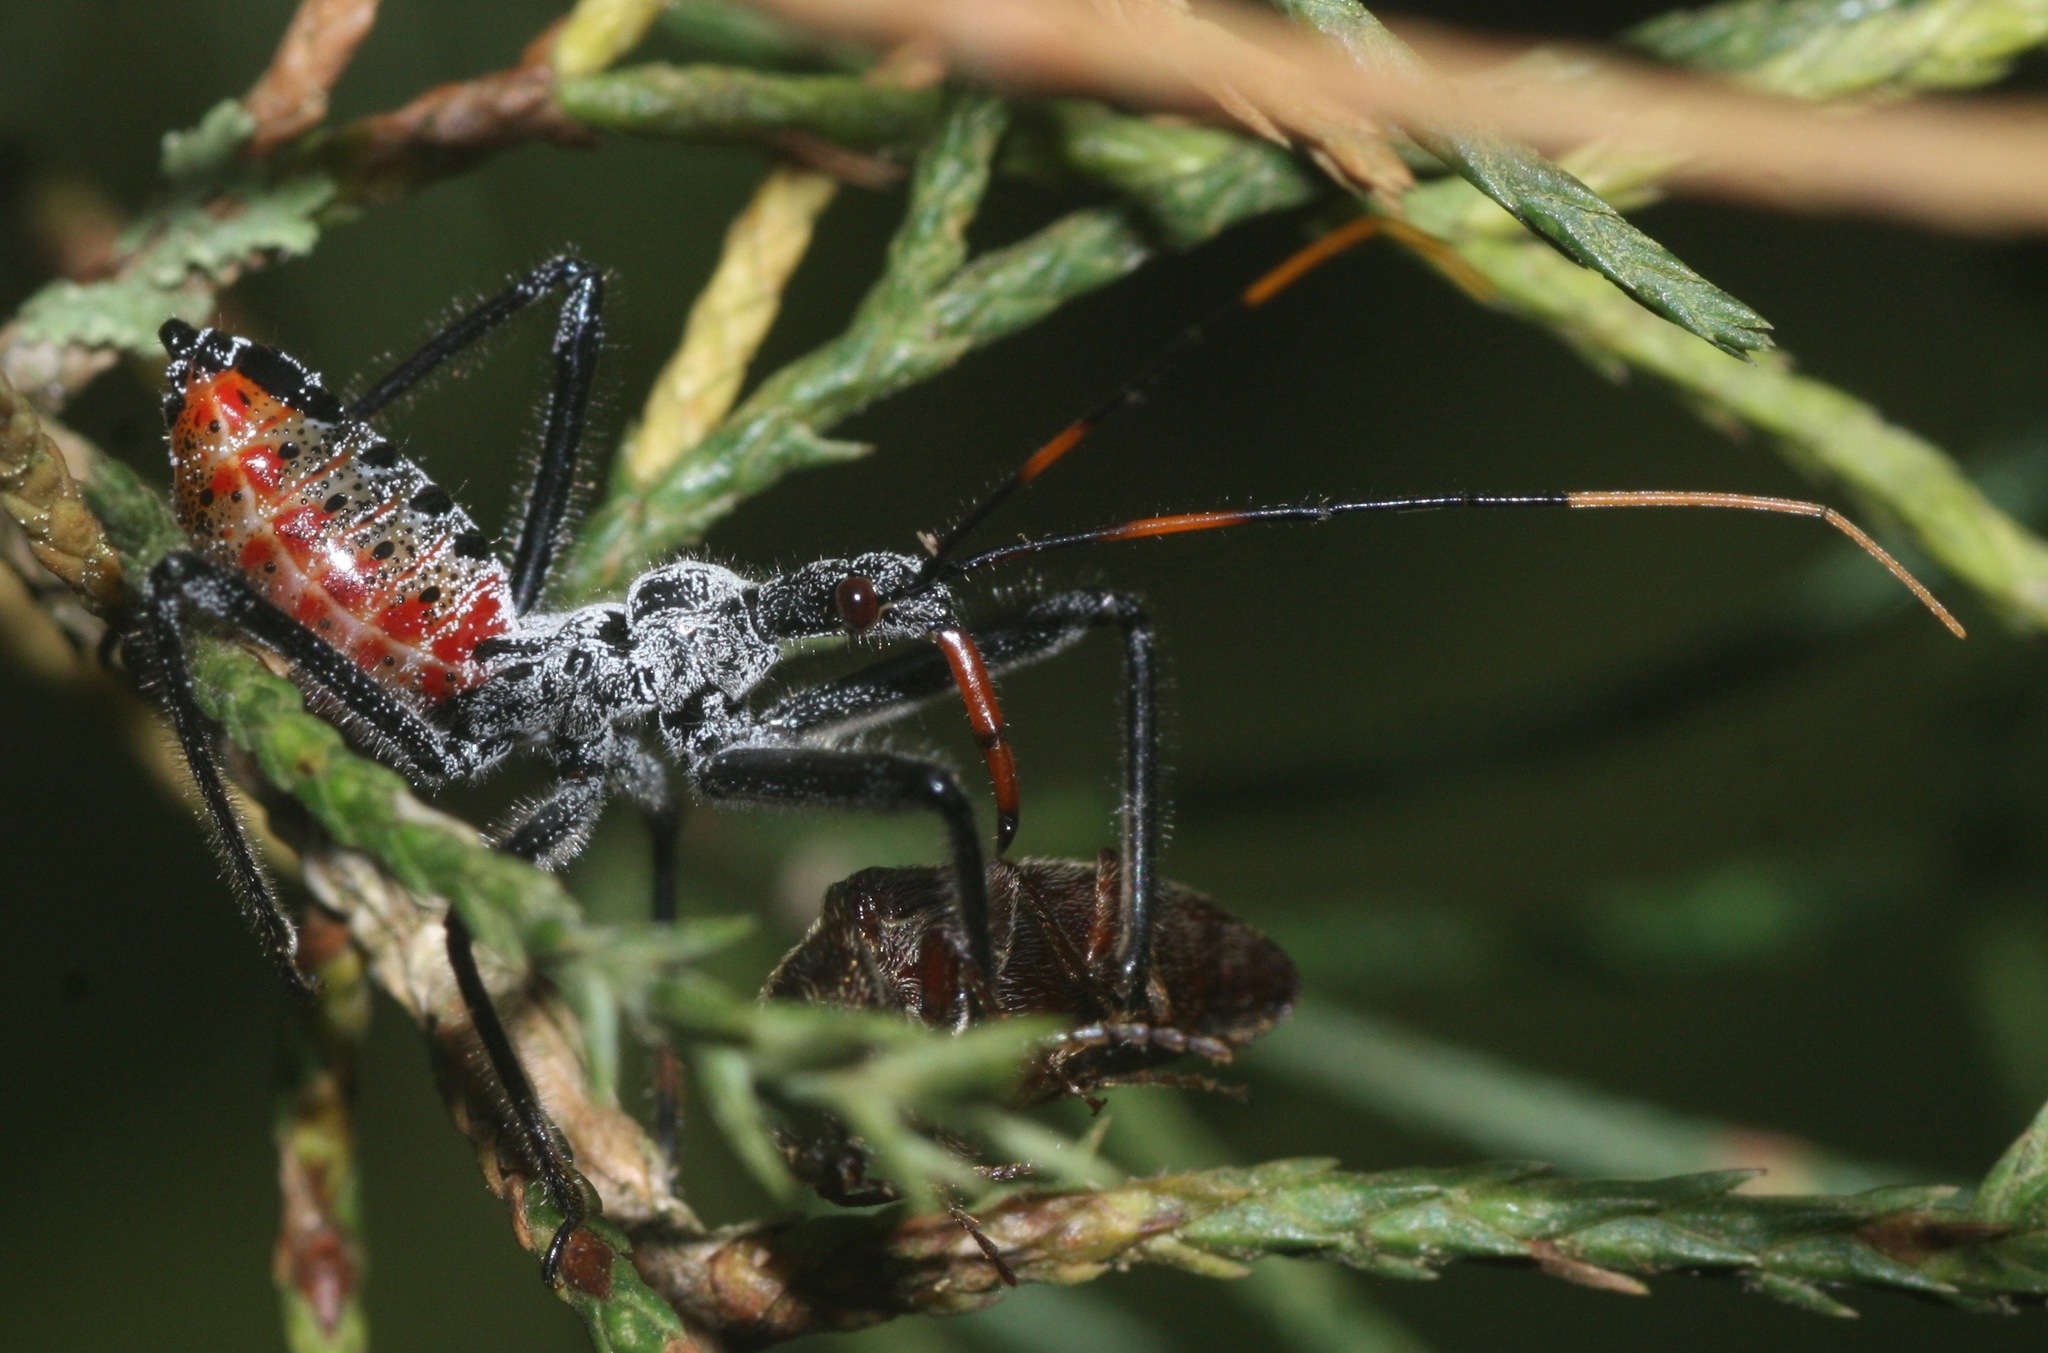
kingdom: Animalia
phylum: Arthropoda
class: Insecta
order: Hemiptera
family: Reduviidae
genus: Arilus
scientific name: Arilus cristatus
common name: North american wheel bug
